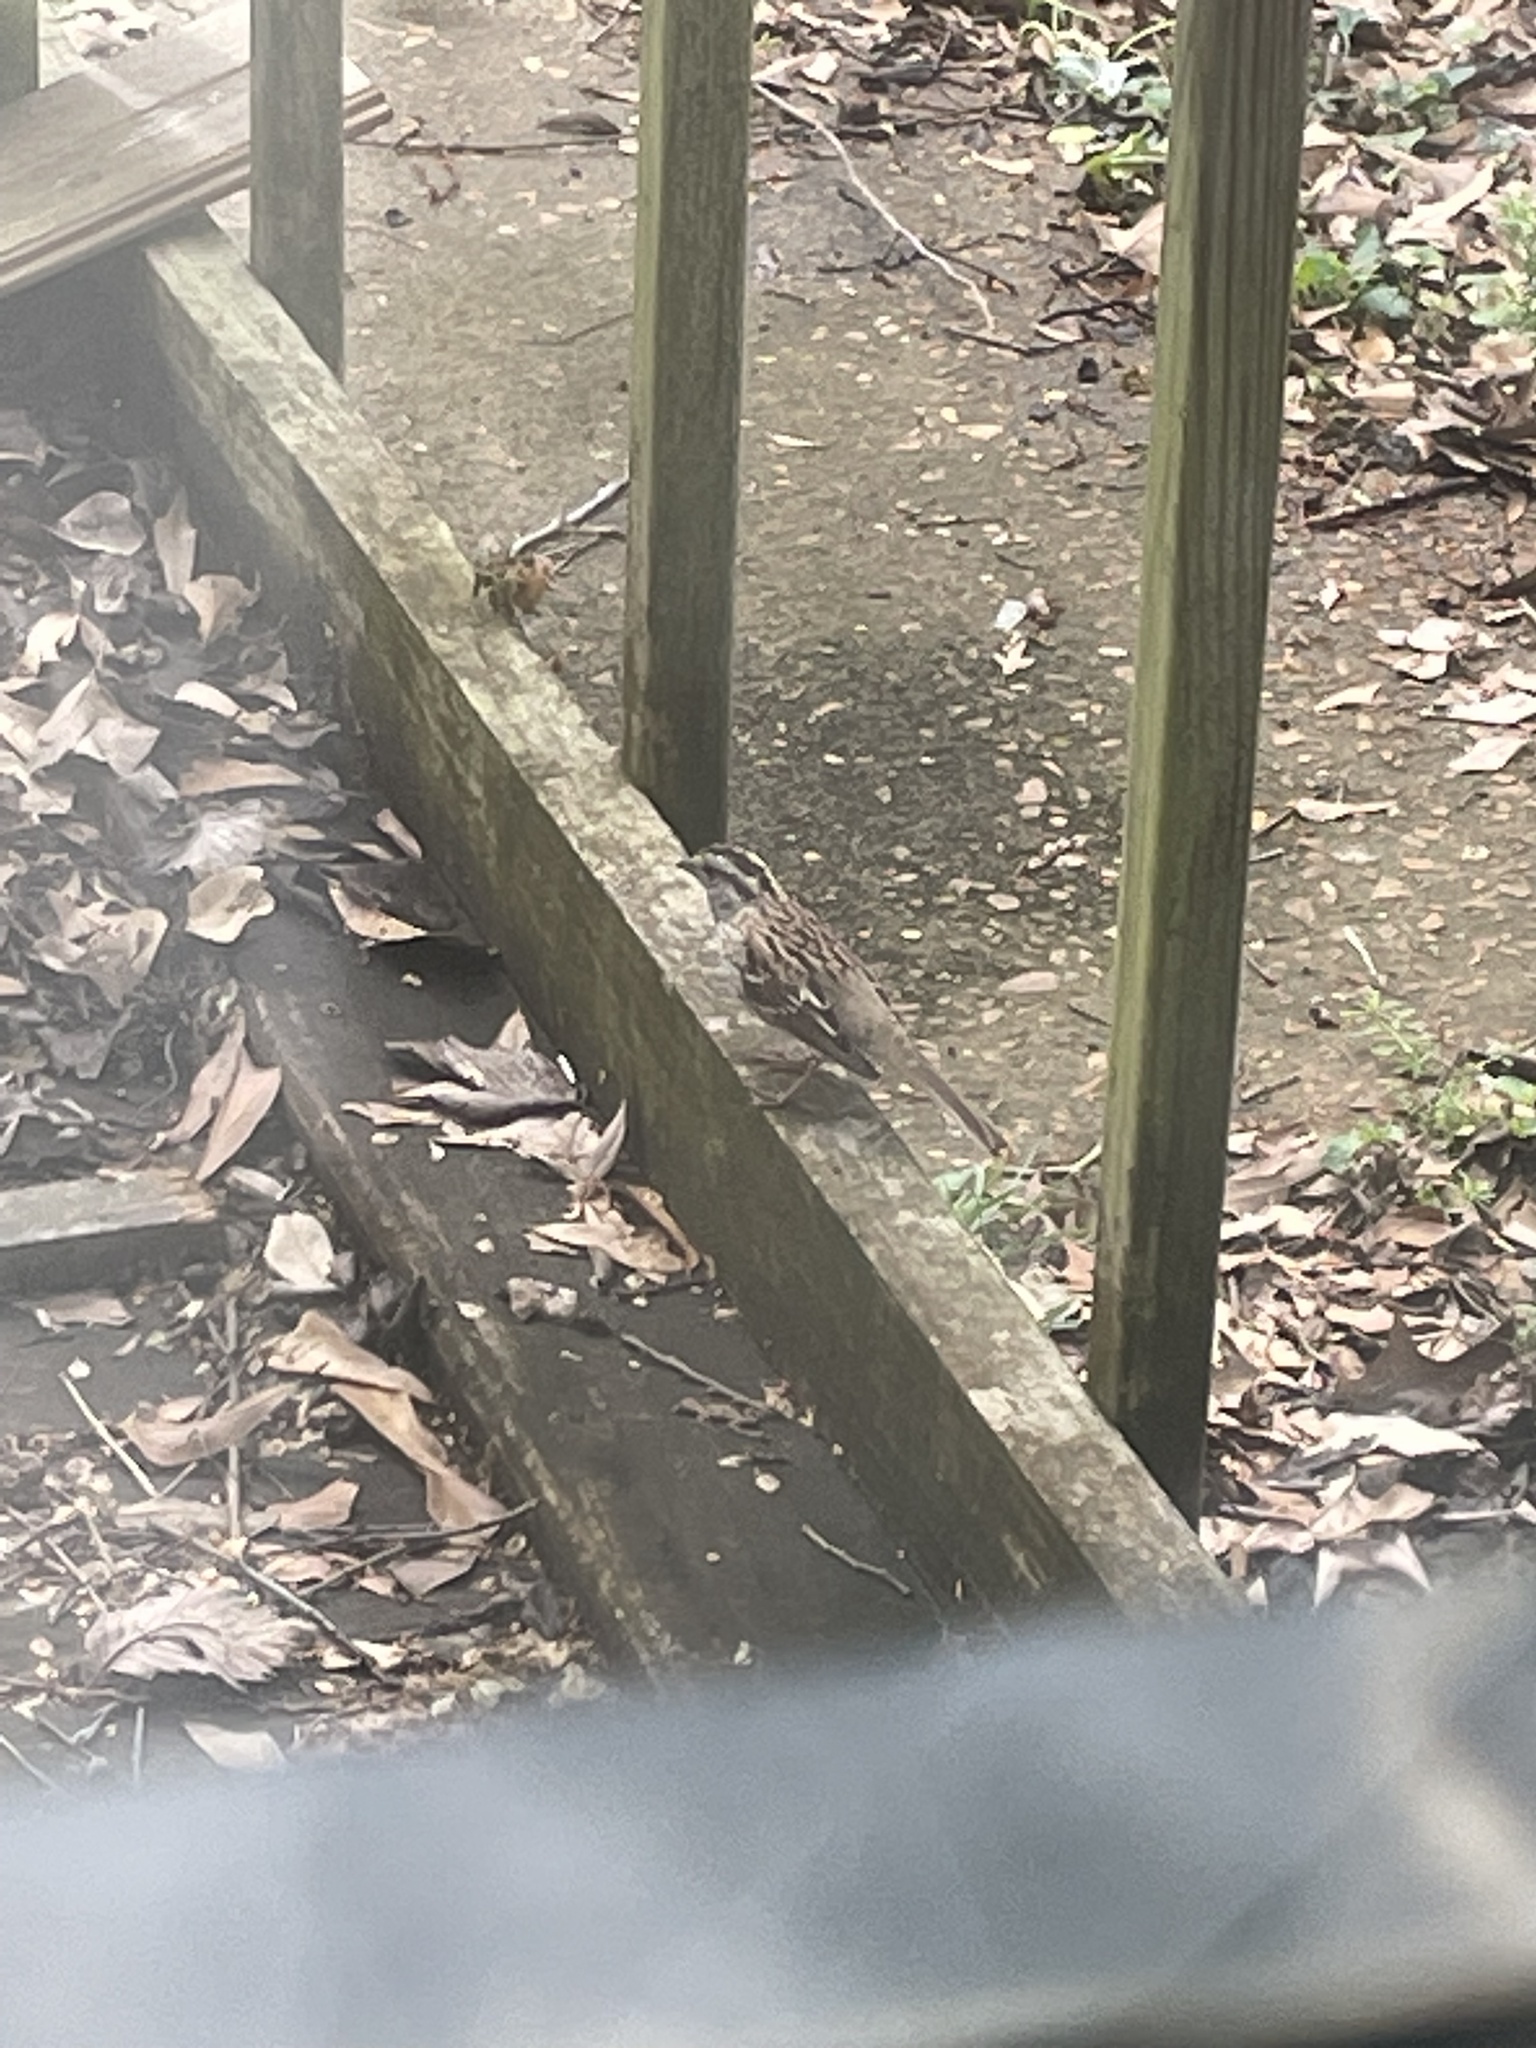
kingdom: Animalia
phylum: Chordata
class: Aves
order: Passeriformes
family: Passerellidae
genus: Zonotrichia
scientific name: Zonotrichia albicollis
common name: White-throated sparrow
